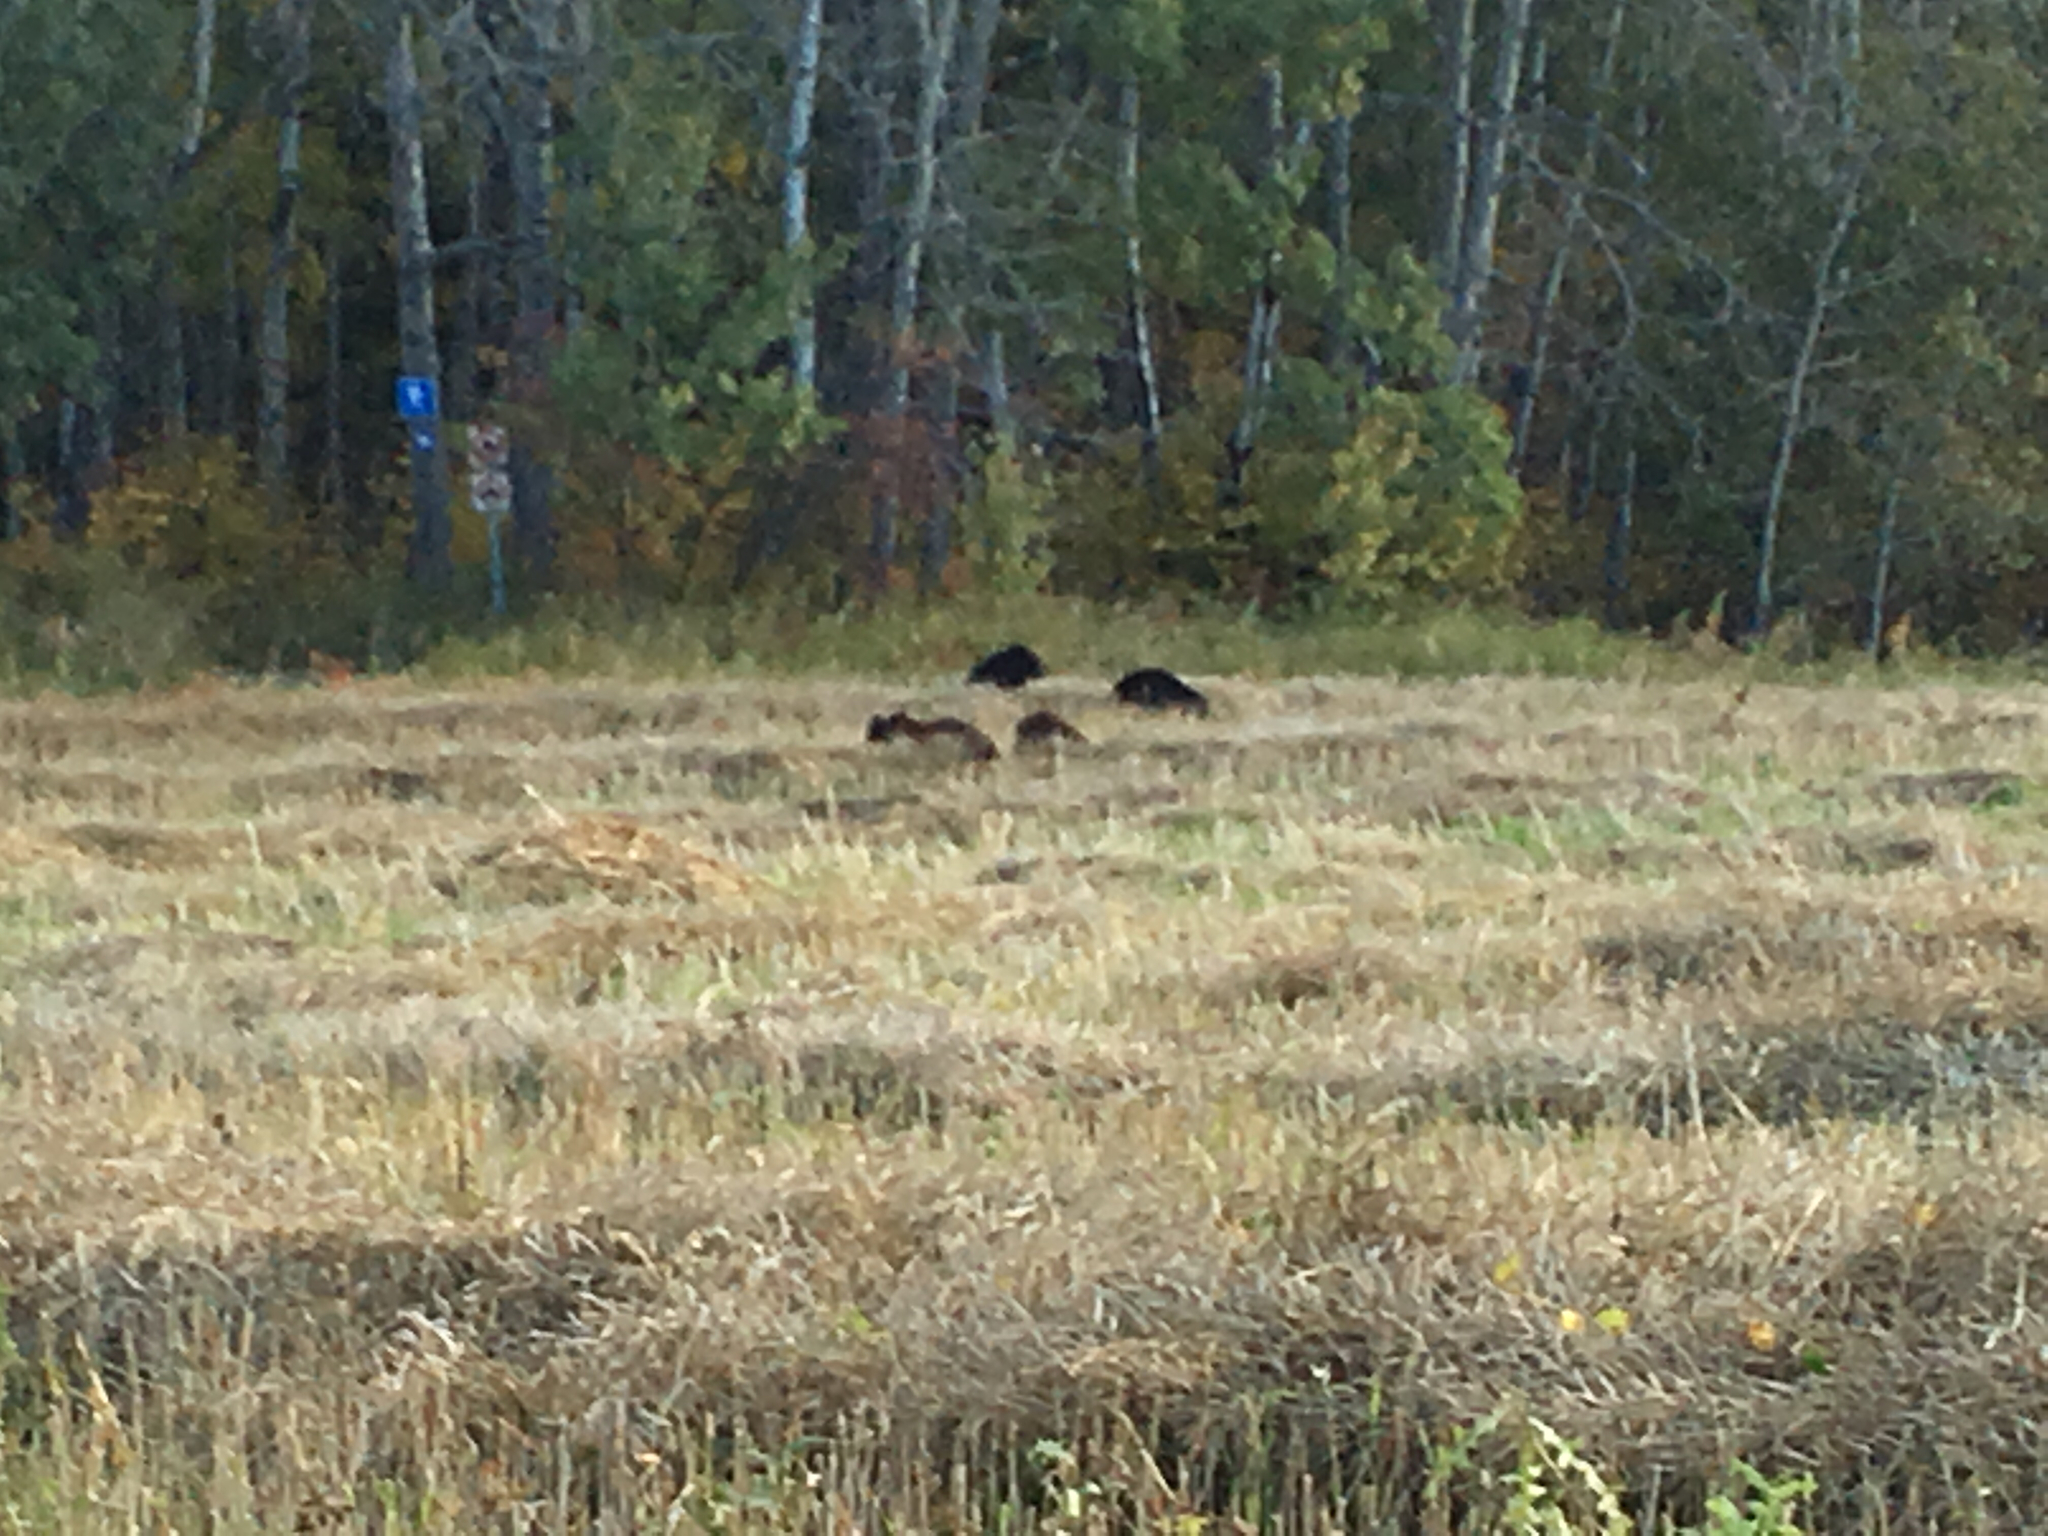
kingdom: Animalia
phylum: Chordata
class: Mammalia
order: Carnivora
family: Ursidae
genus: Ursus
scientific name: Ursus americanus
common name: American black bear
